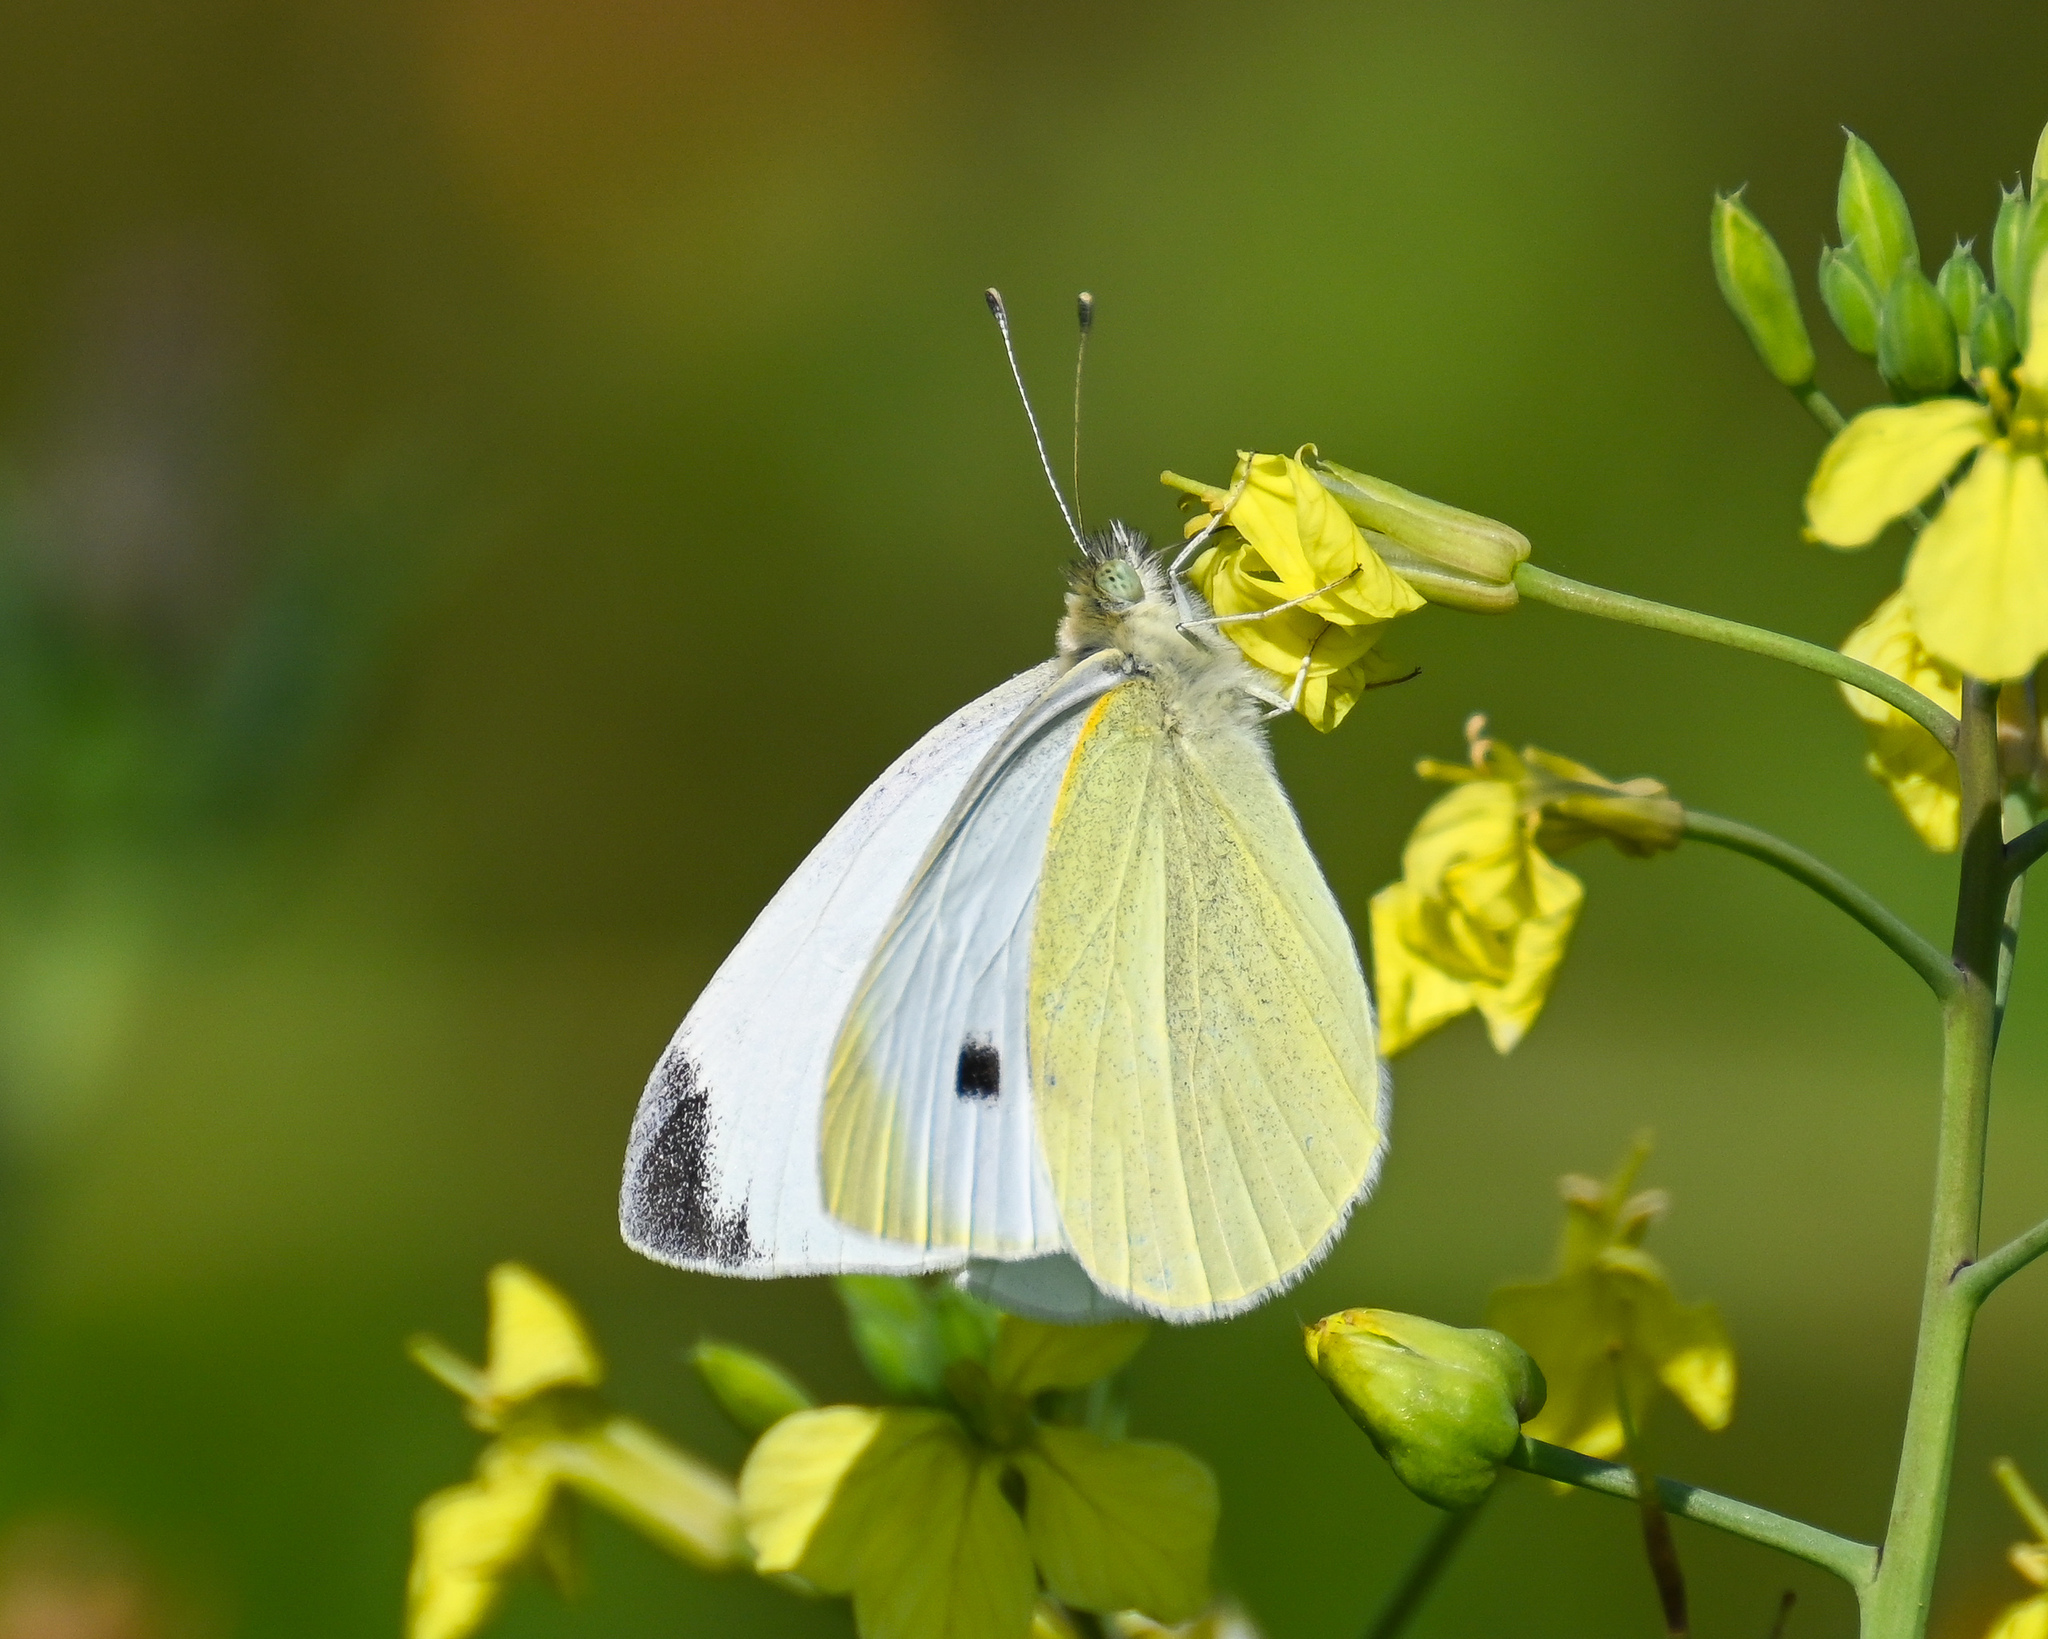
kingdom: Animalia
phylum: Arthropoda
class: Insecta
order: Lepidoptera
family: Pieridae
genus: Pieris
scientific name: Pieris rapae
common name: Small white
